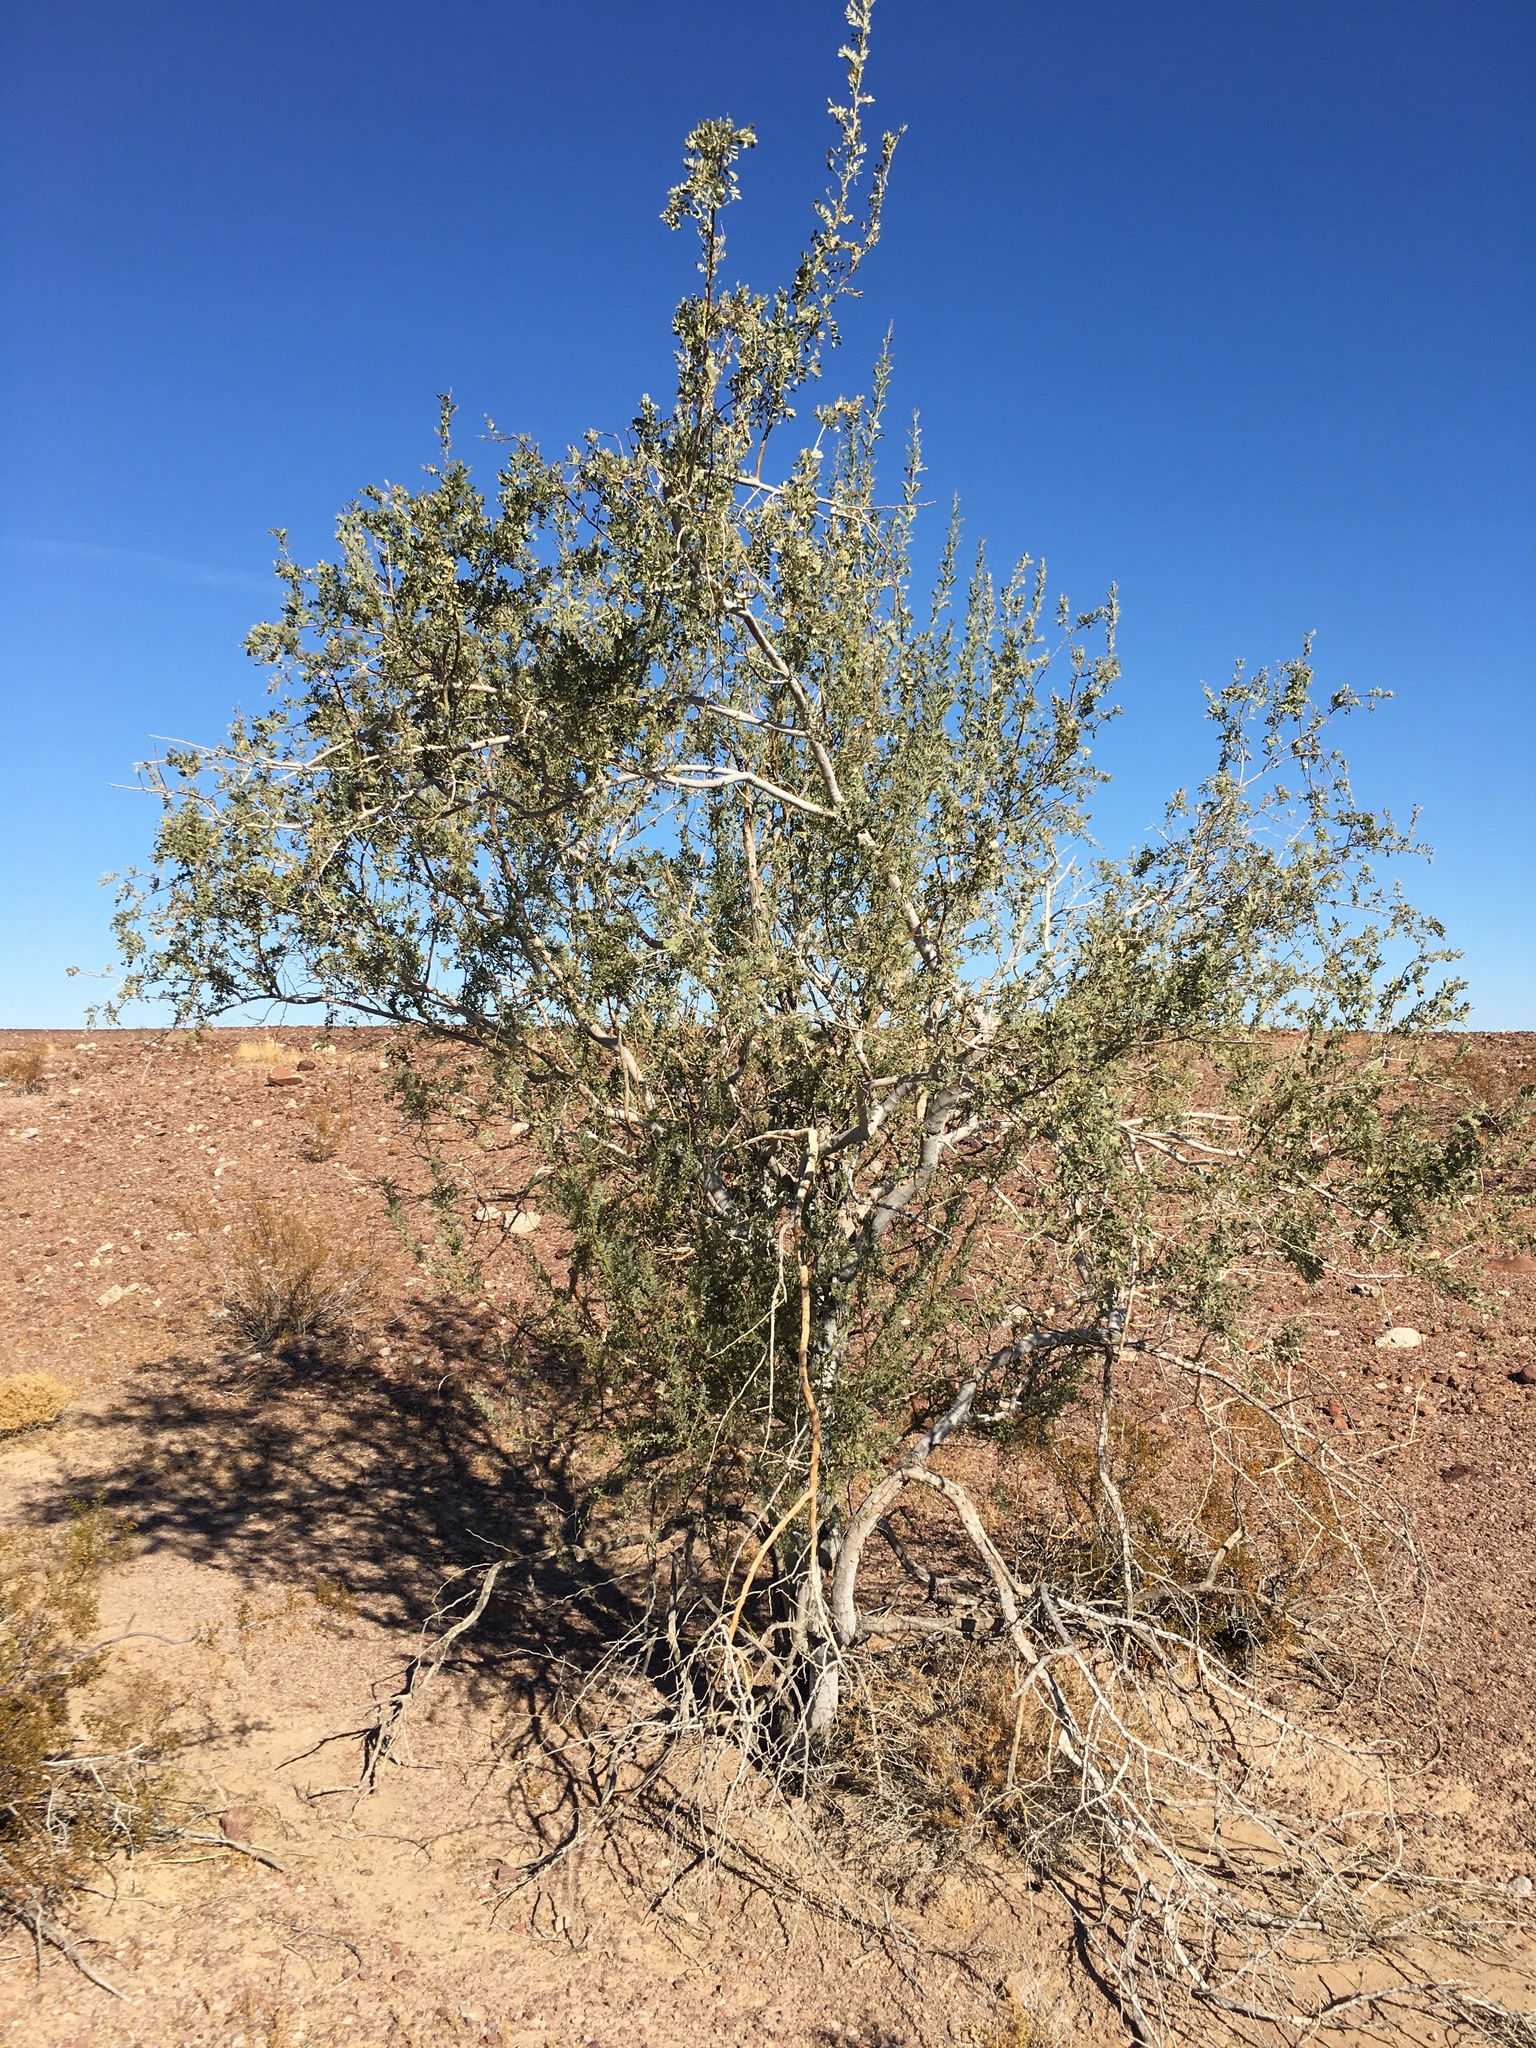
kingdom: Plantae
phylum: Tracheophyta
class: Magnoliopsida
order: Fabales
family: Fabaceae
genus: Olneya
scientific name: Olneya tesota
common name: Desert ironwood
